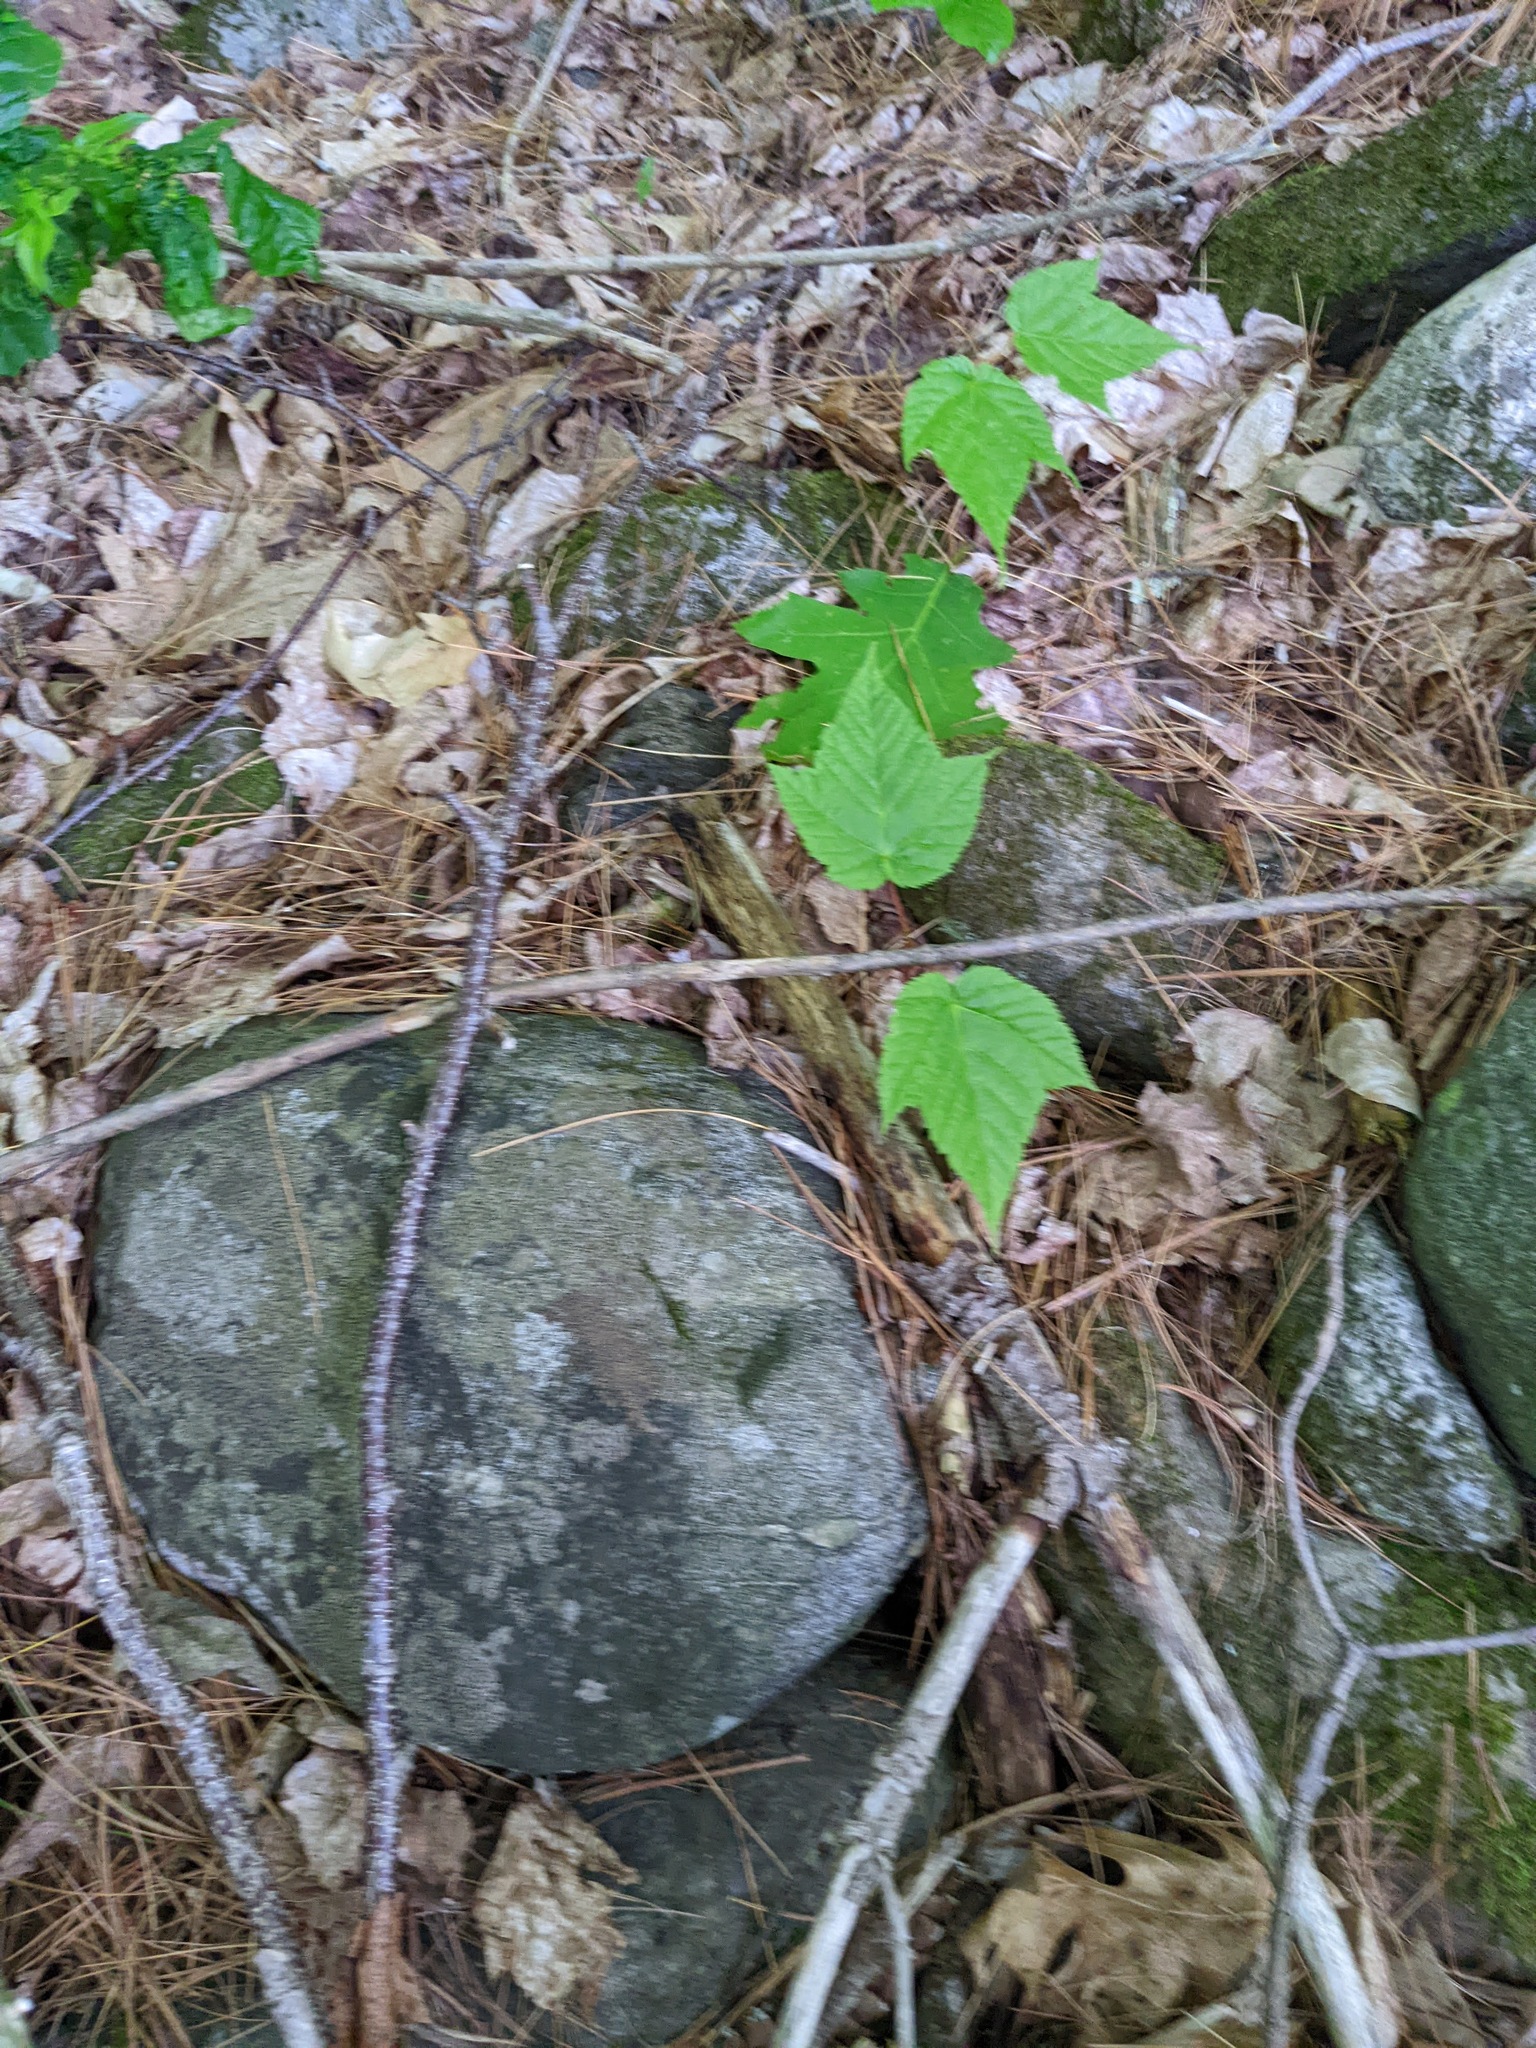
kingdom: Plantae
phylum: Tracheophyta
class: Magnoliopsida
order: Sapindales
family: Sapindaceae
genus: Acer
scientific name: Acer pensylvanicum
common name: Moosewood
